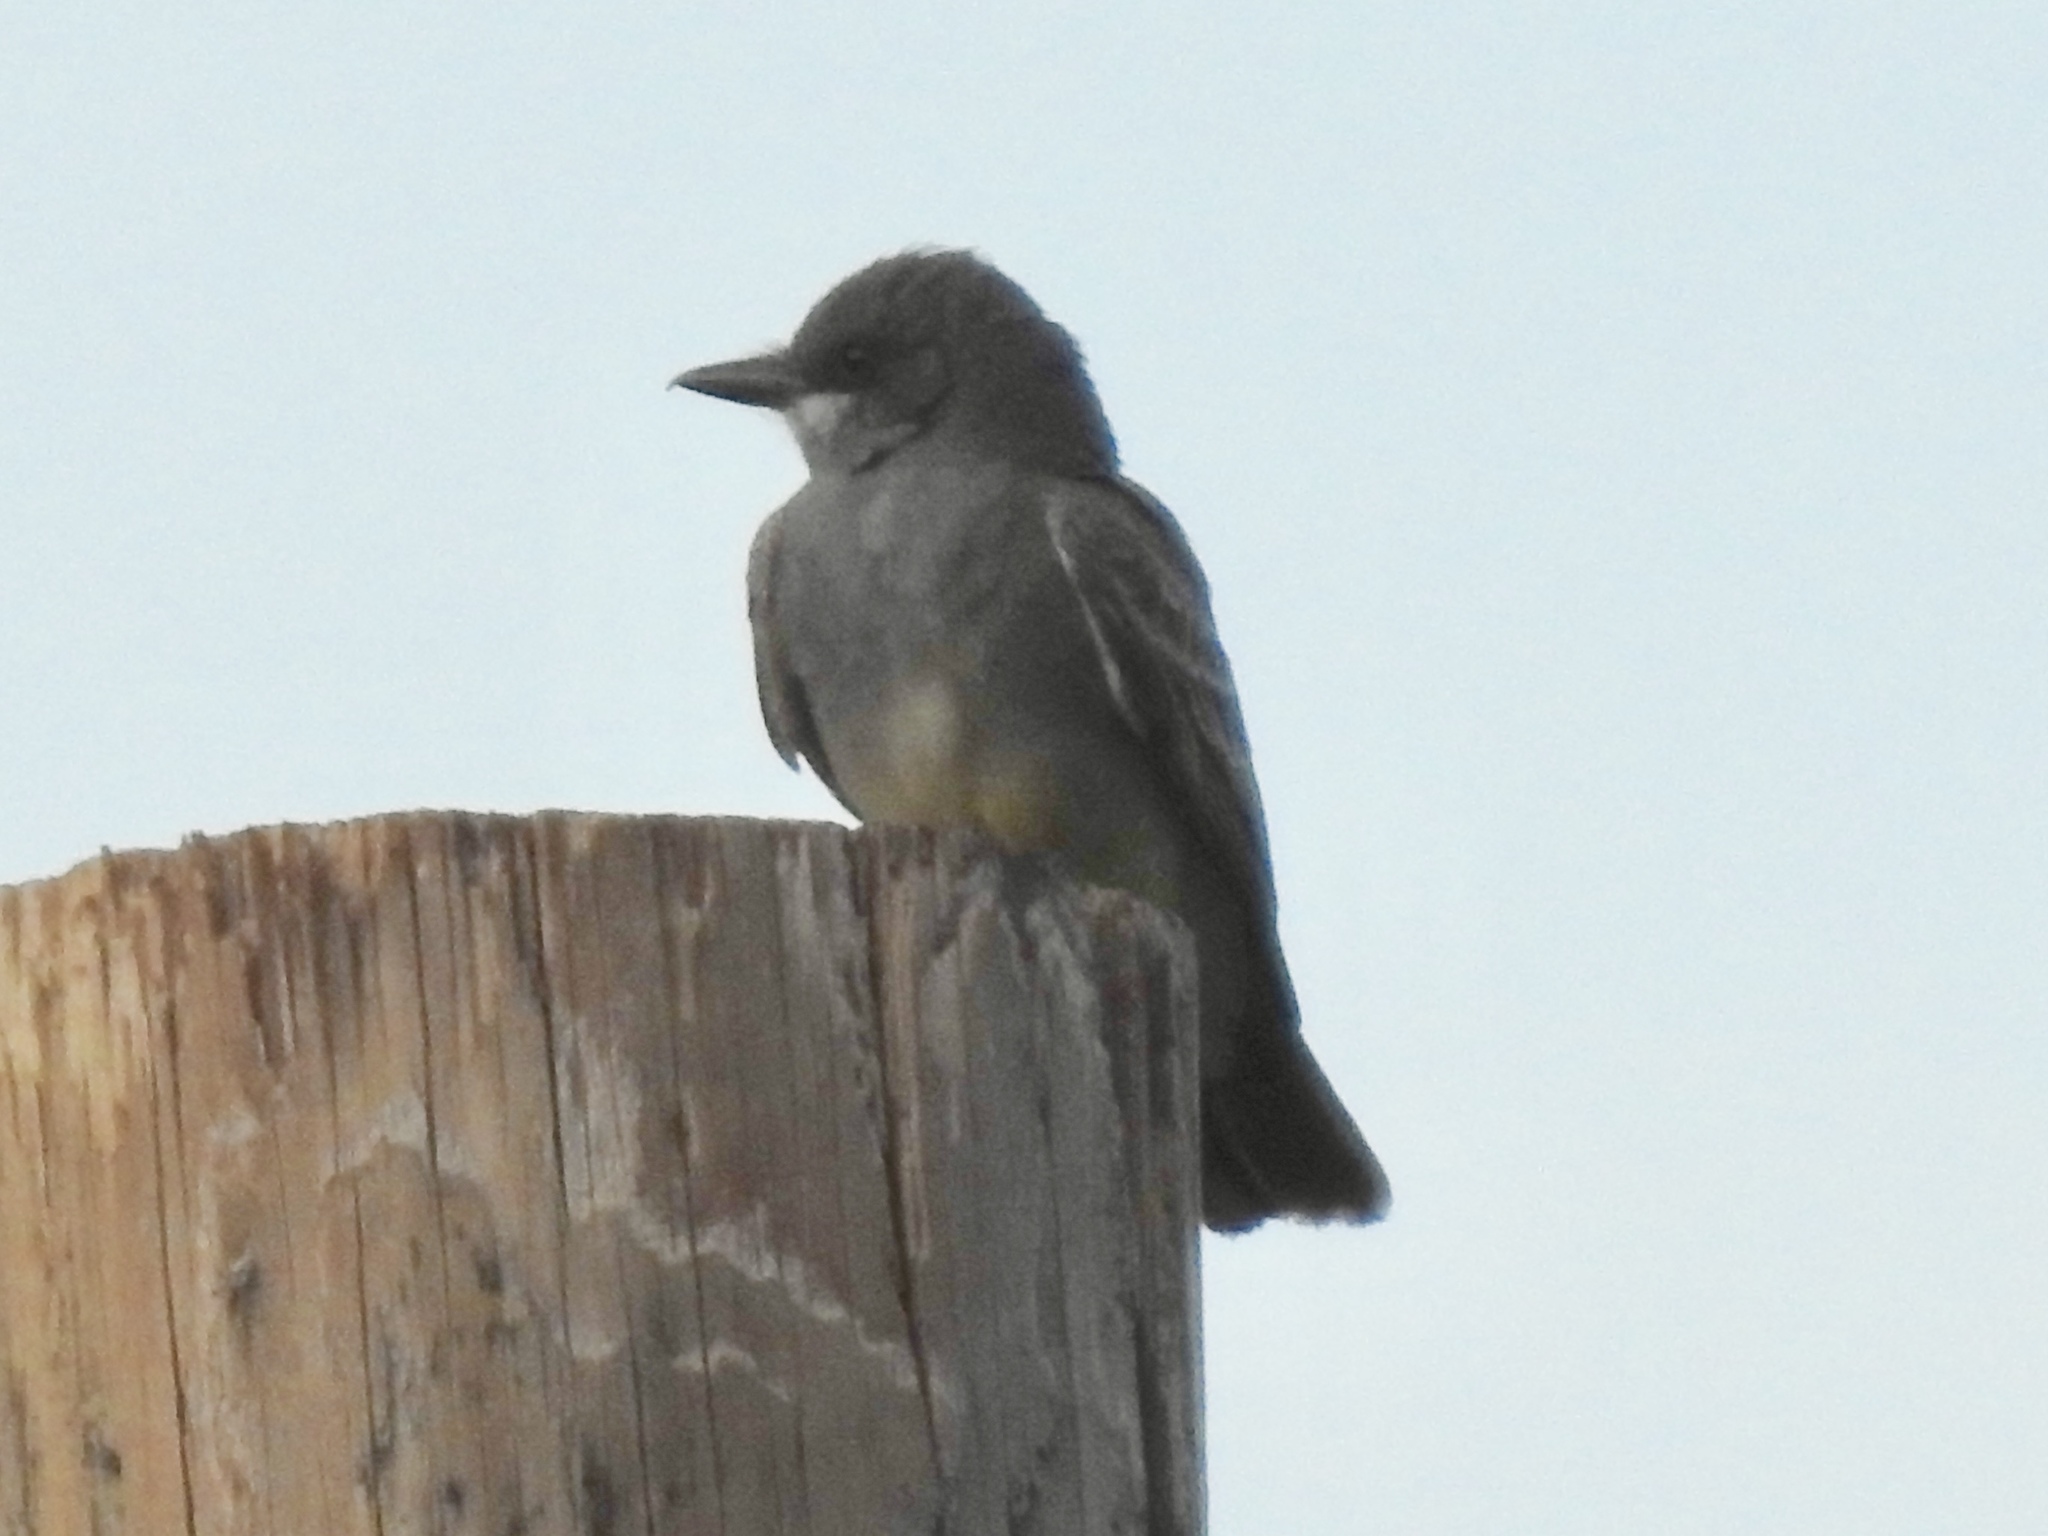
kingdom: Animalia
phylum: Chordata
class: Aves
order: Passeriformes
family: Tyrannidae
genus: Tyrannus
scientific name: Tyrannus vociferans
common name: Cassin's kingbird
